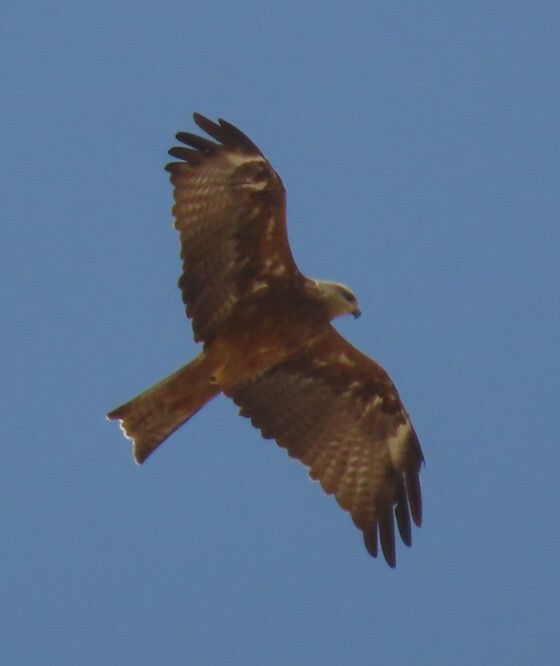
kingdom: Animalia
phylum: Chordata
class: Aves
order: Accipitriformes
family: Accipitridae
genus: Milvus
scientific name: Milvus migrans
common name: Black kite
